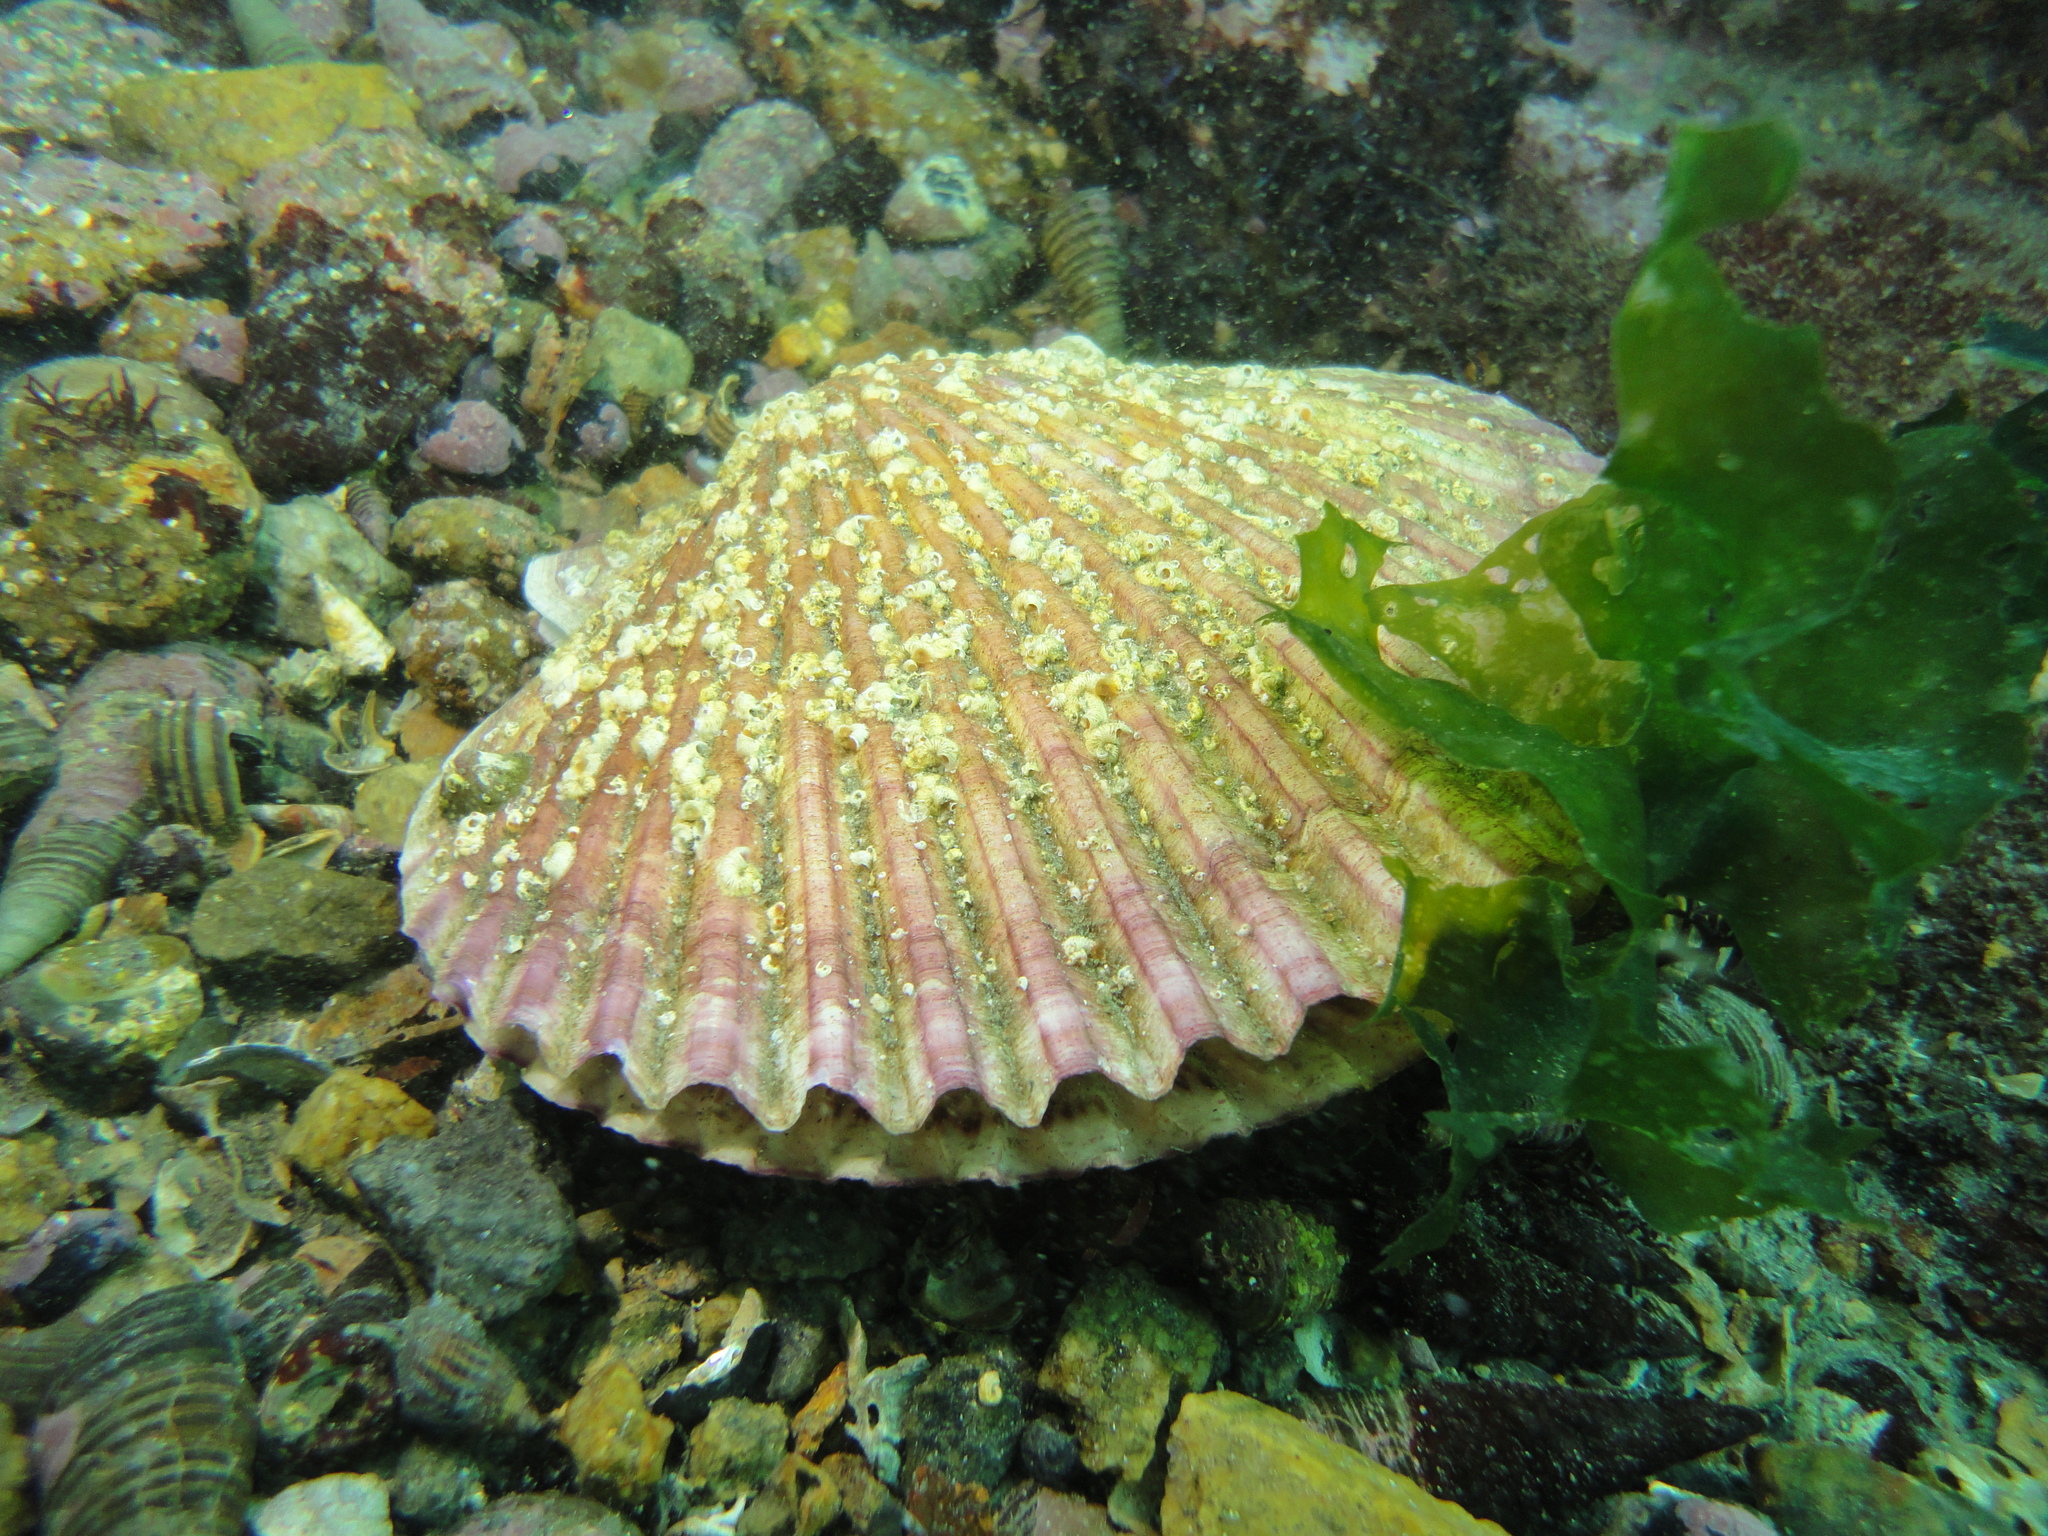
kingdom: Animalia
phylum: Mollusca
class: Bivalvia
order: Pectinida
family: Pectinidae
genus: Argopecten
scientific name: Argopecten purpuratus
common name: Peruvian scallop
